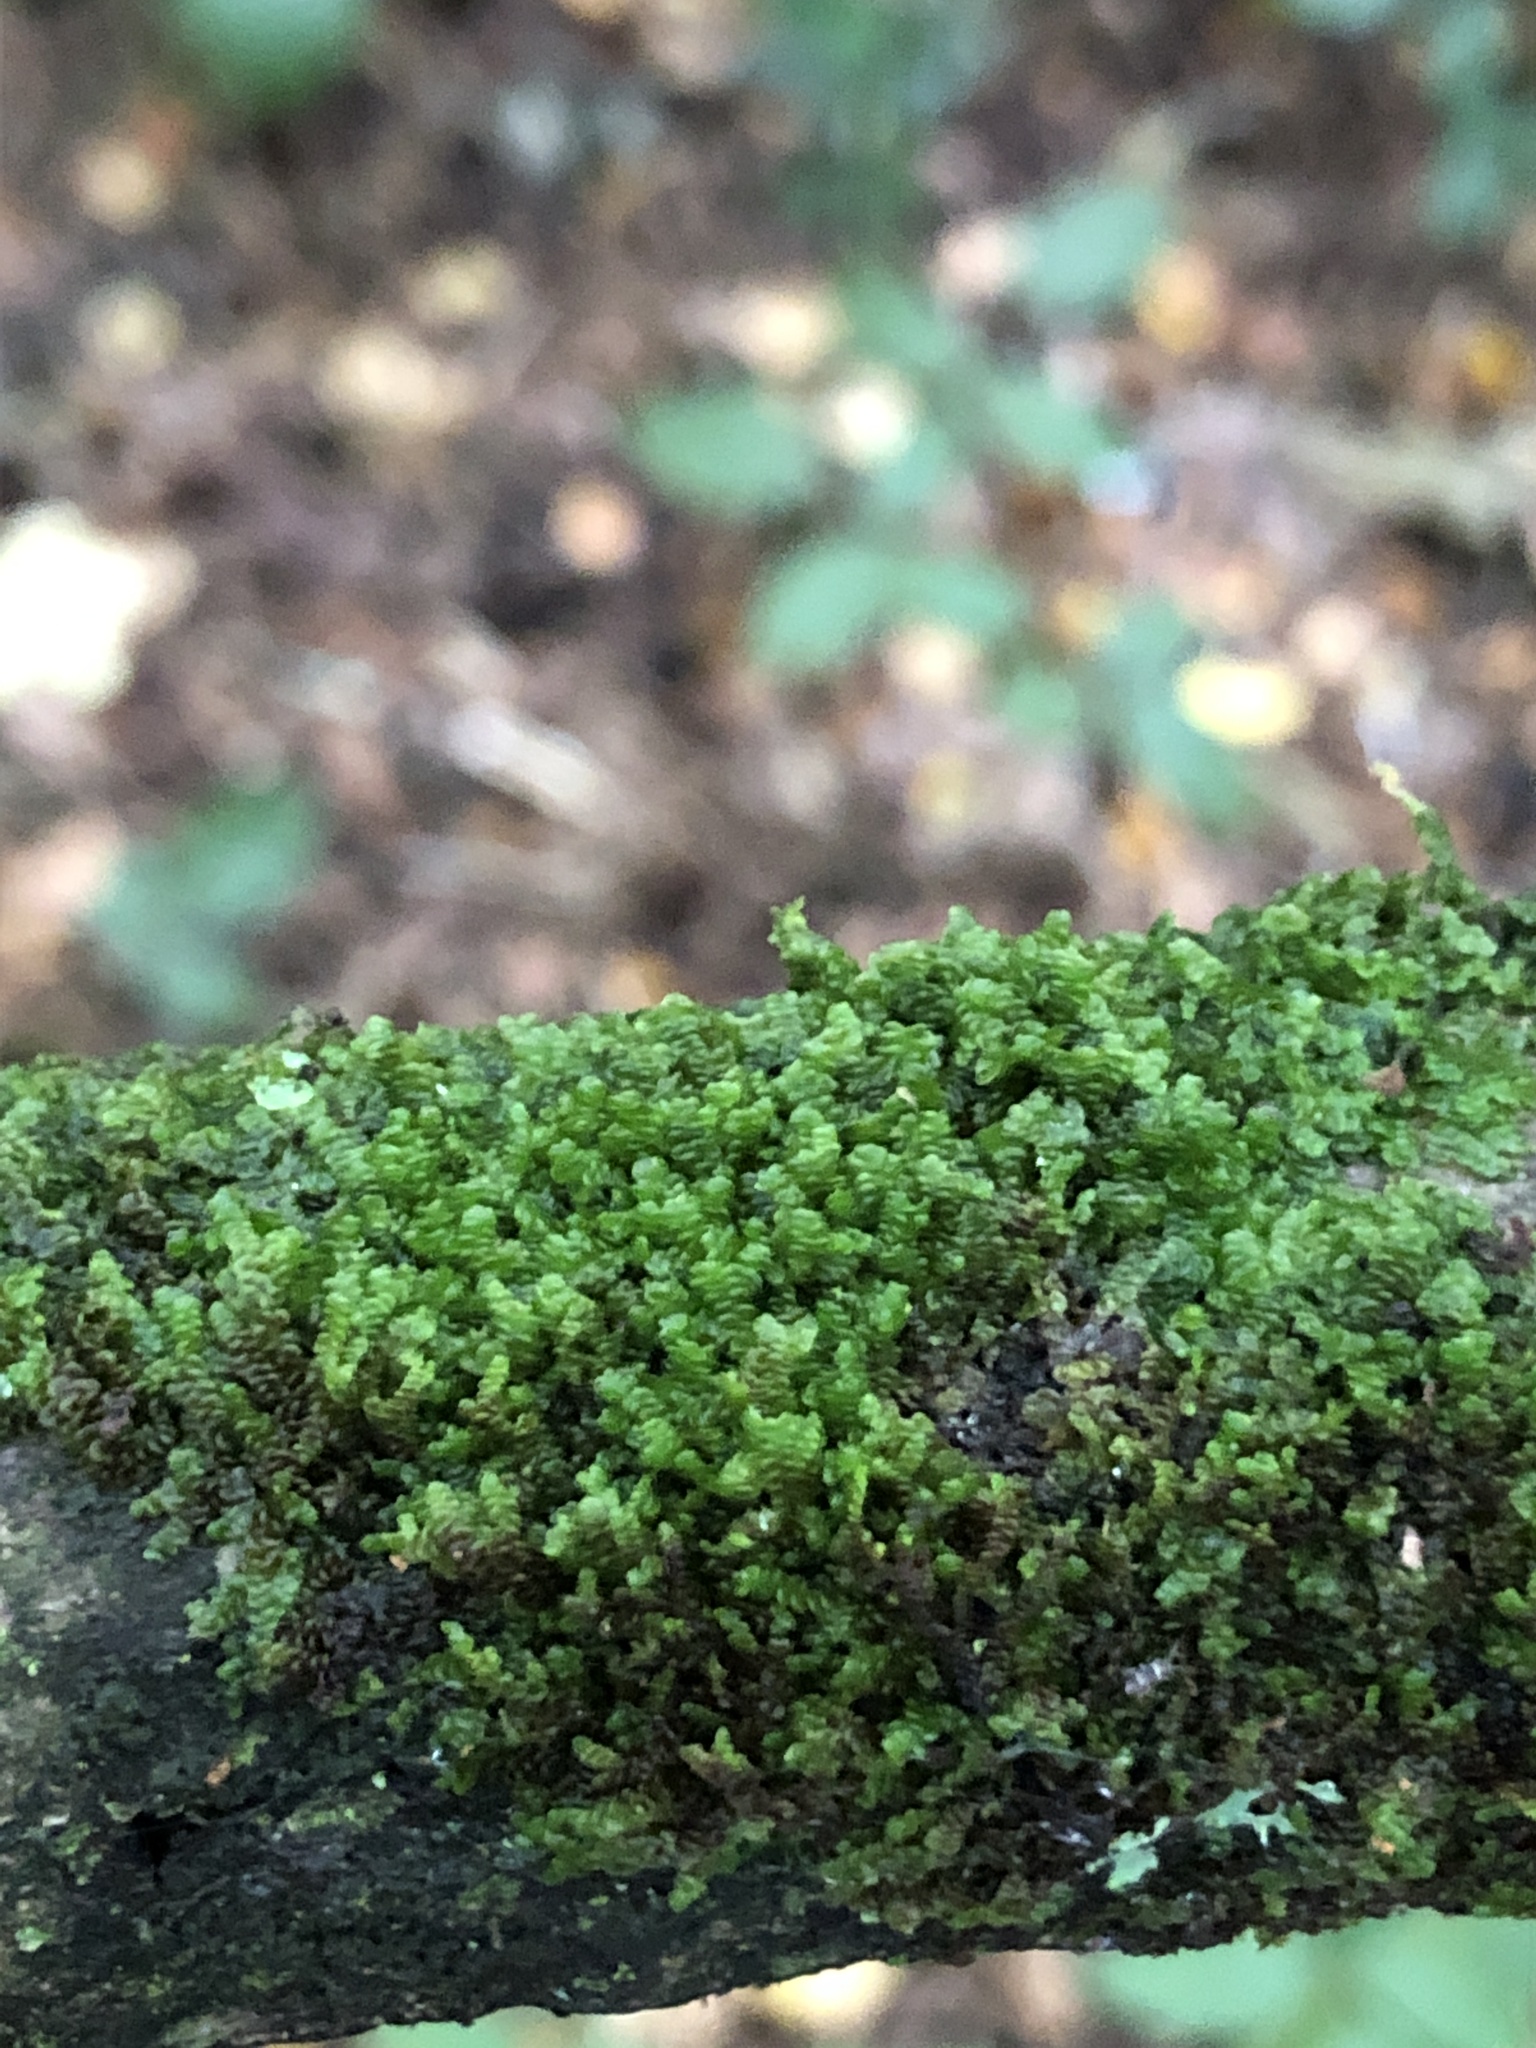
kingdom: Plantae
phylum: Marchantiophyta
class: Jungermanniopsida
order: Porellales
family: Frullaniaceae
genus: Frullania
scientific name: Frullania dilatata
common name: Dilated scalewort
